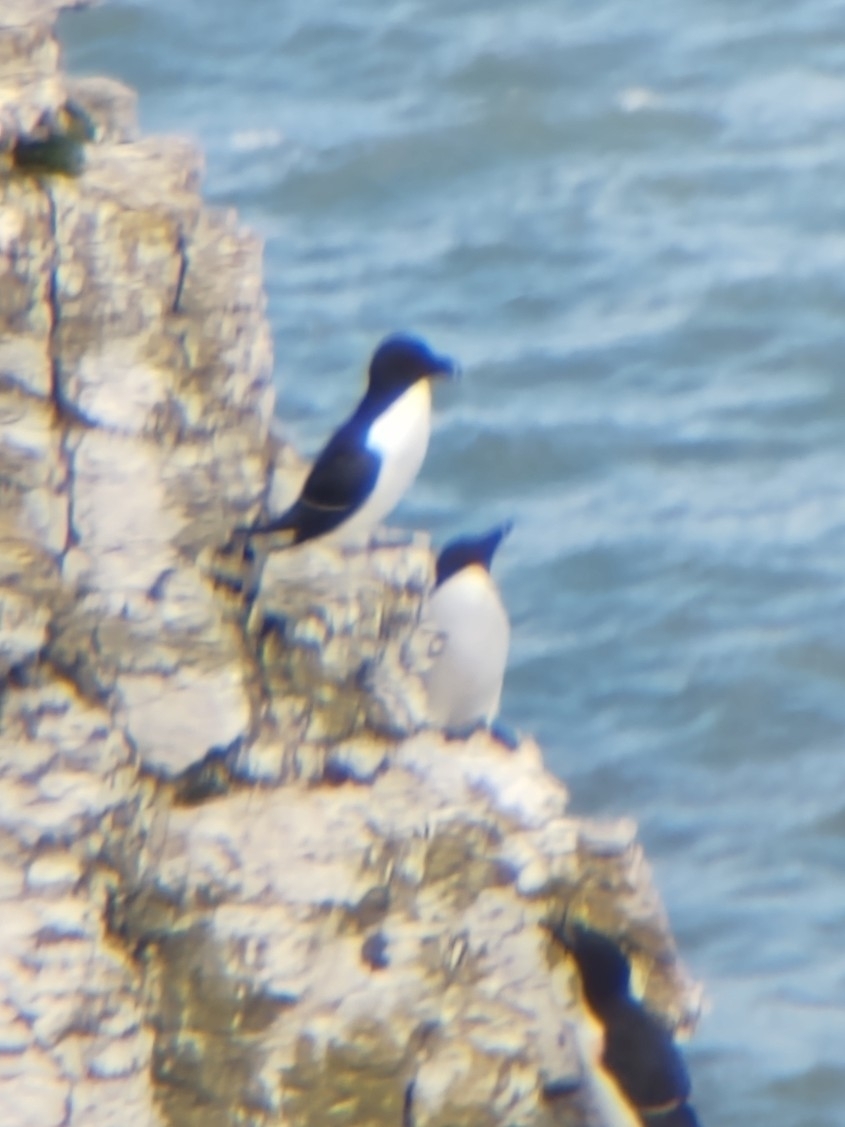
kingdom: Animalia
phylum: Chordata
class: Aves
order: Charadriiformes
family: Alcidae
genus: Alca
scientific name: Alca torda
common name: Razorbill
